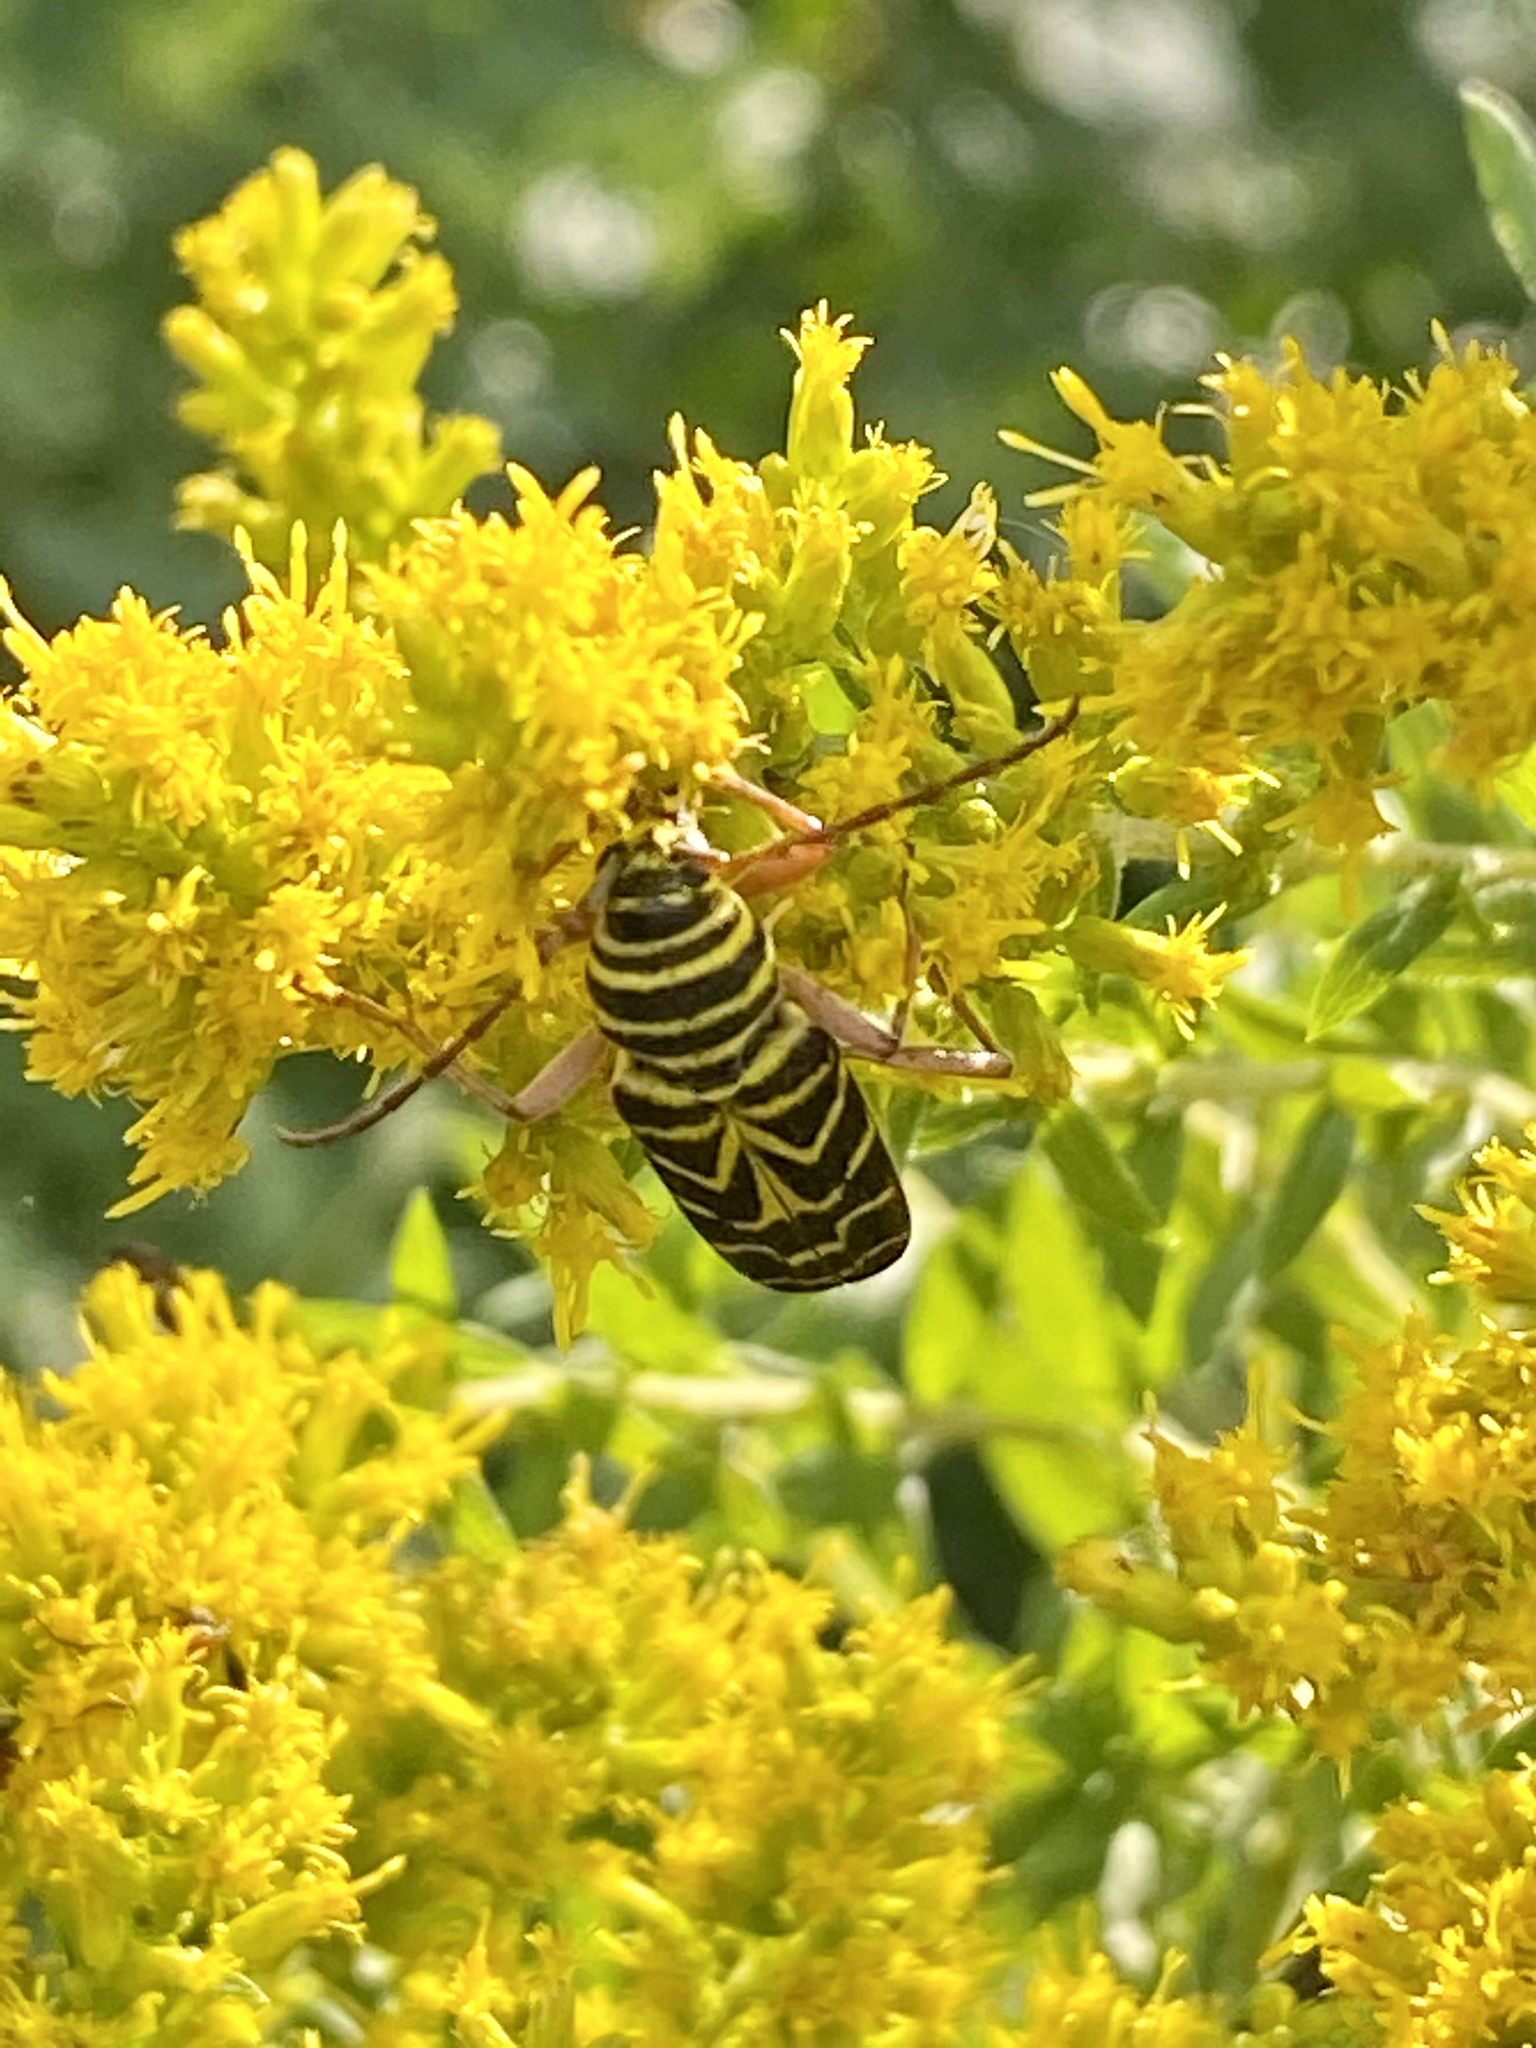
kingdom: Animalia
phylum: Arthropoda
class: Insecta
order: Coleoptera
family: Cerambycidae
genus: Megacyllene
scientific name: Megacyllene robiniae
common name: Locust borer
